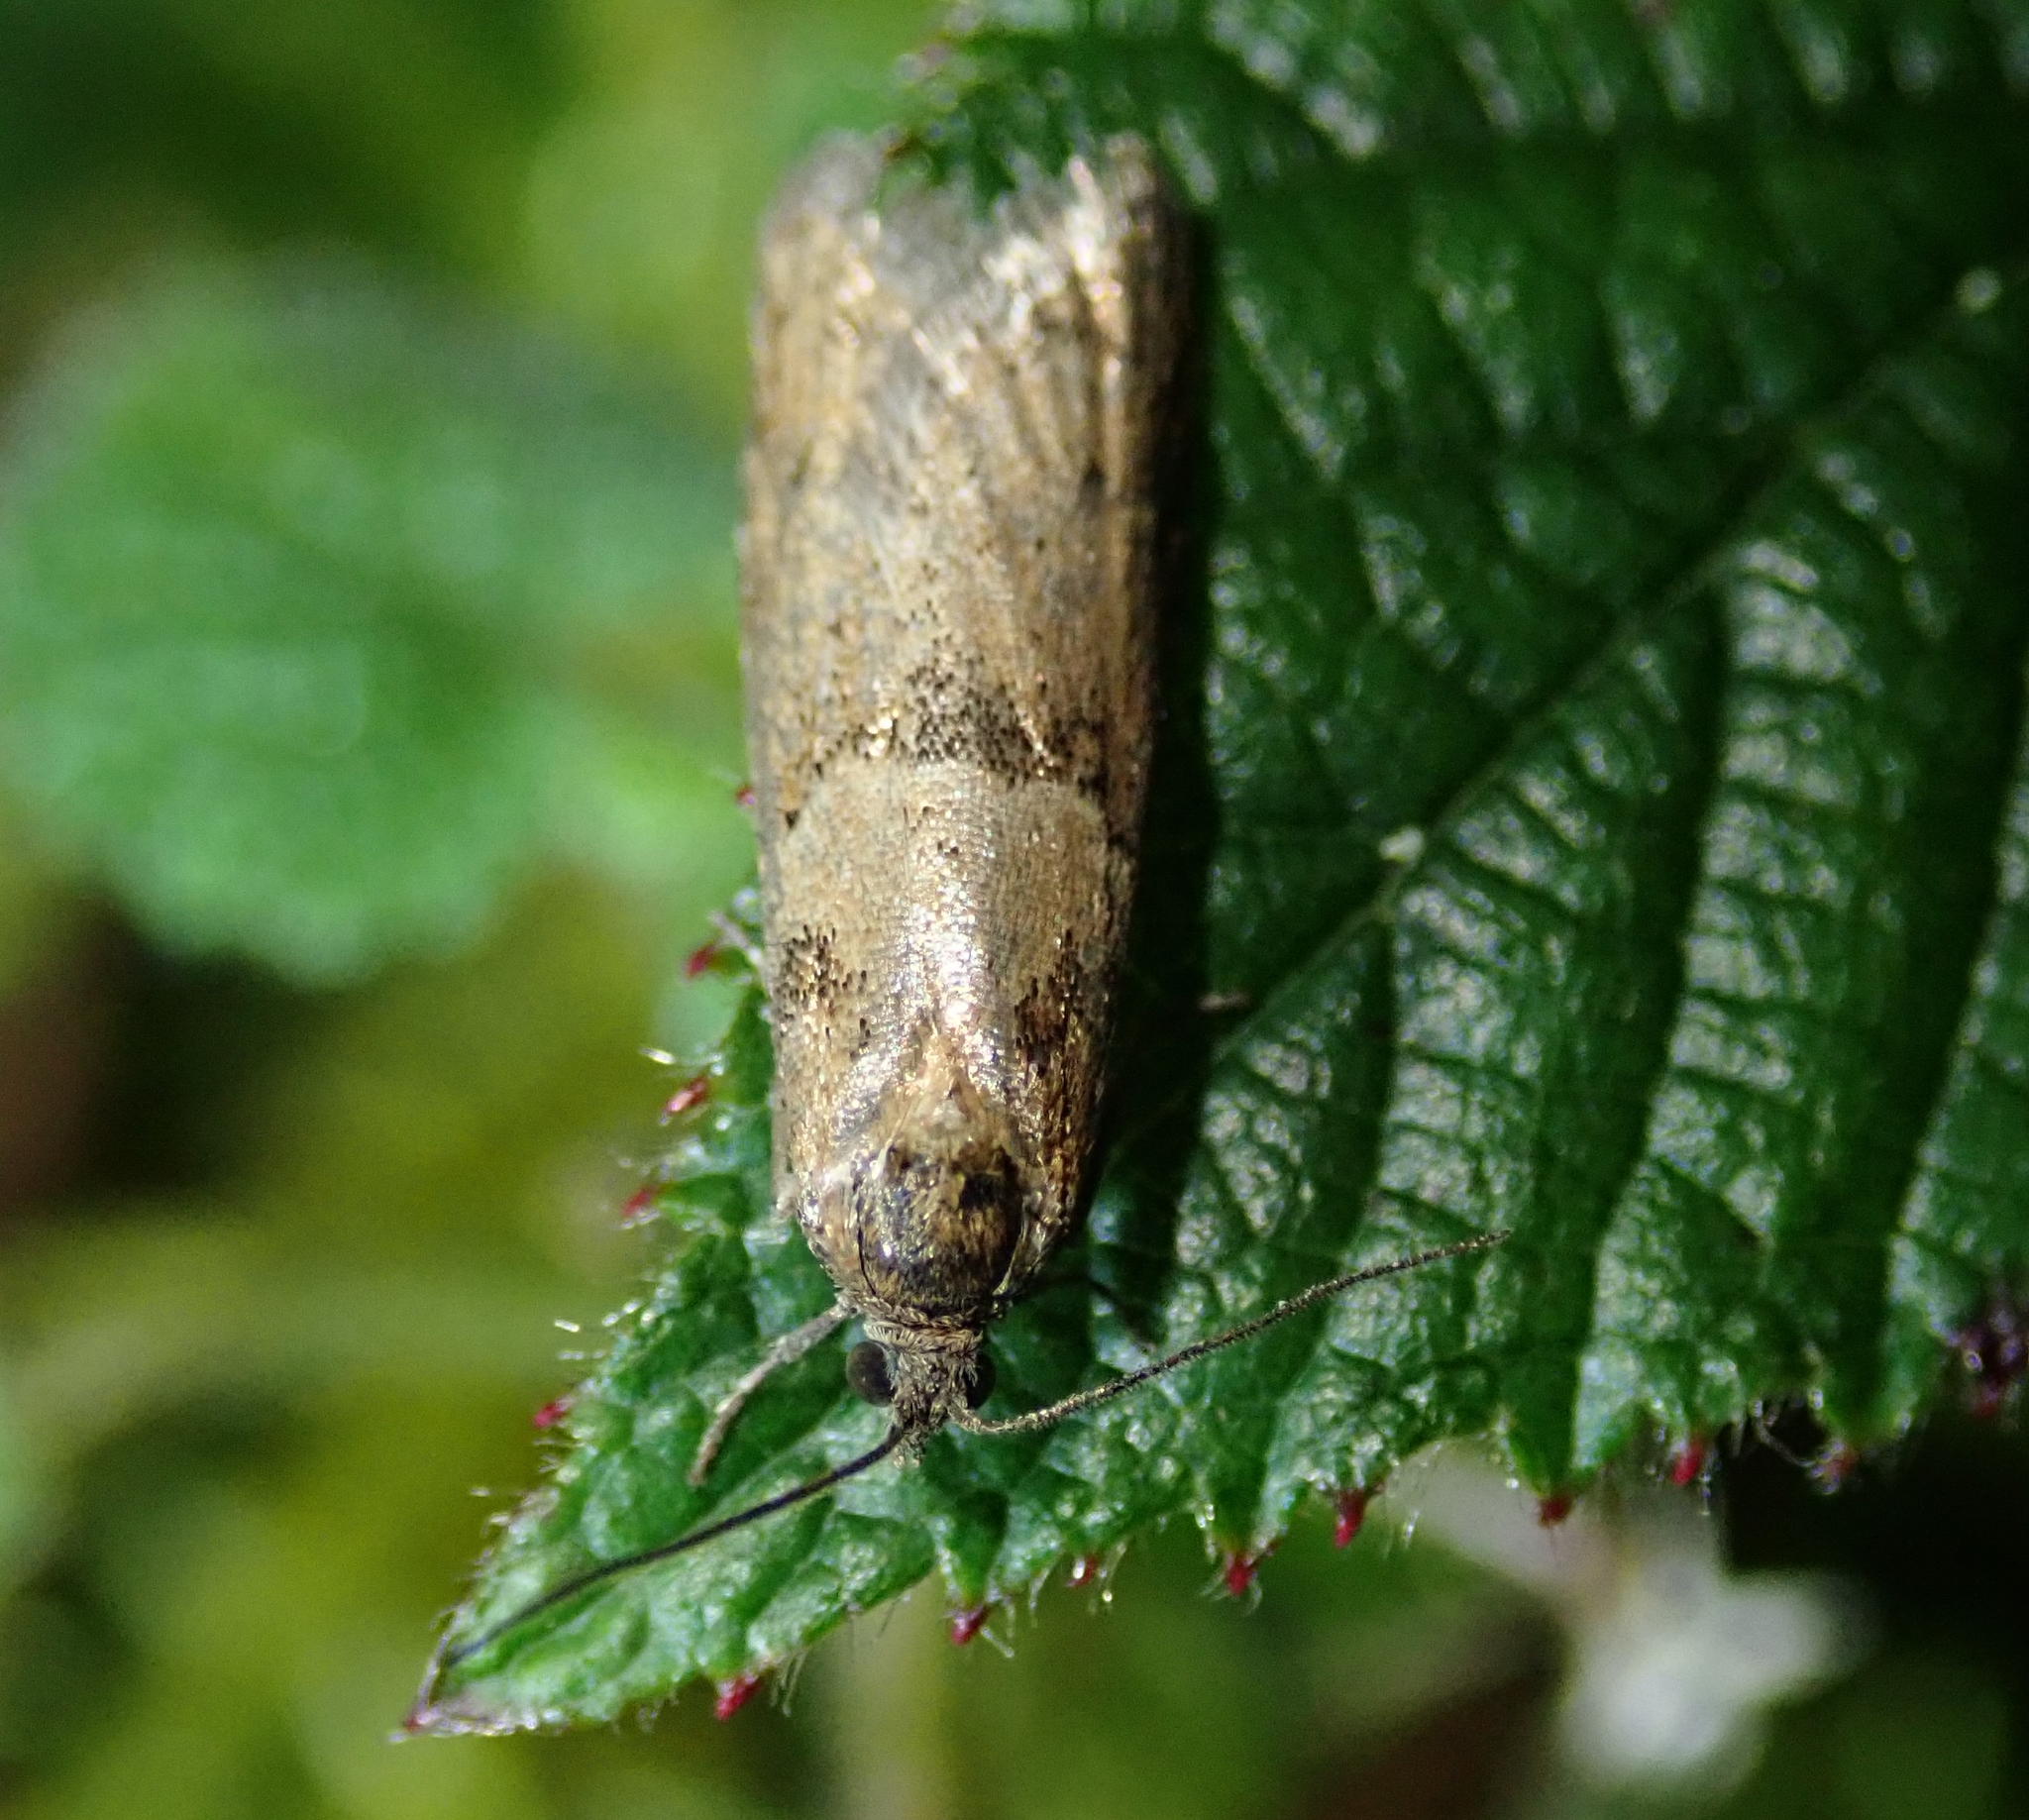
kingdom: Animalia
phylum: Arthropoda
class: Insecta
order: Lepidoptera
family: Tortricidae
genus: Tortricodes
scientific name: Tortricodes alternella
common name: Winter shade
